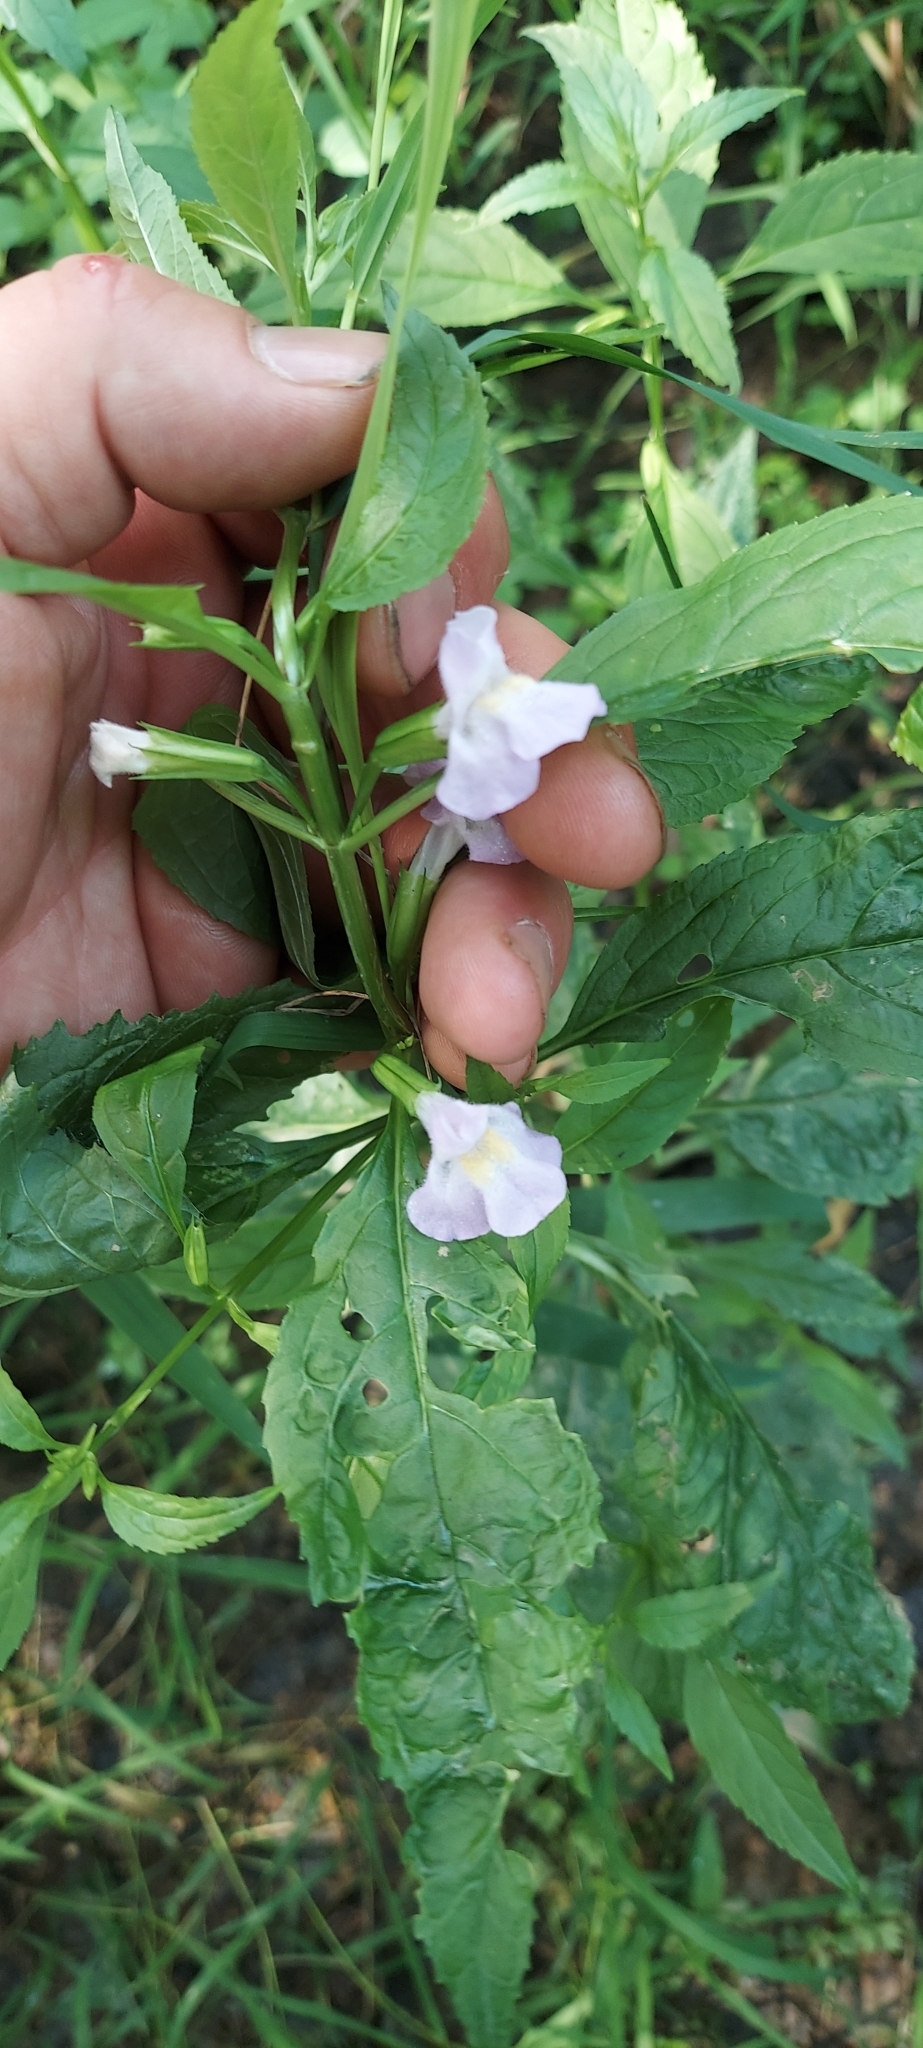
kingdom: Plantae
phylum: Tracheophyta
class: Magnoliopsida
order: Lamiales
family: Phrymaceae
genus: Mimulus
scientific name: Mimulus alatus
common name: Sharp-wing monkey-flower
